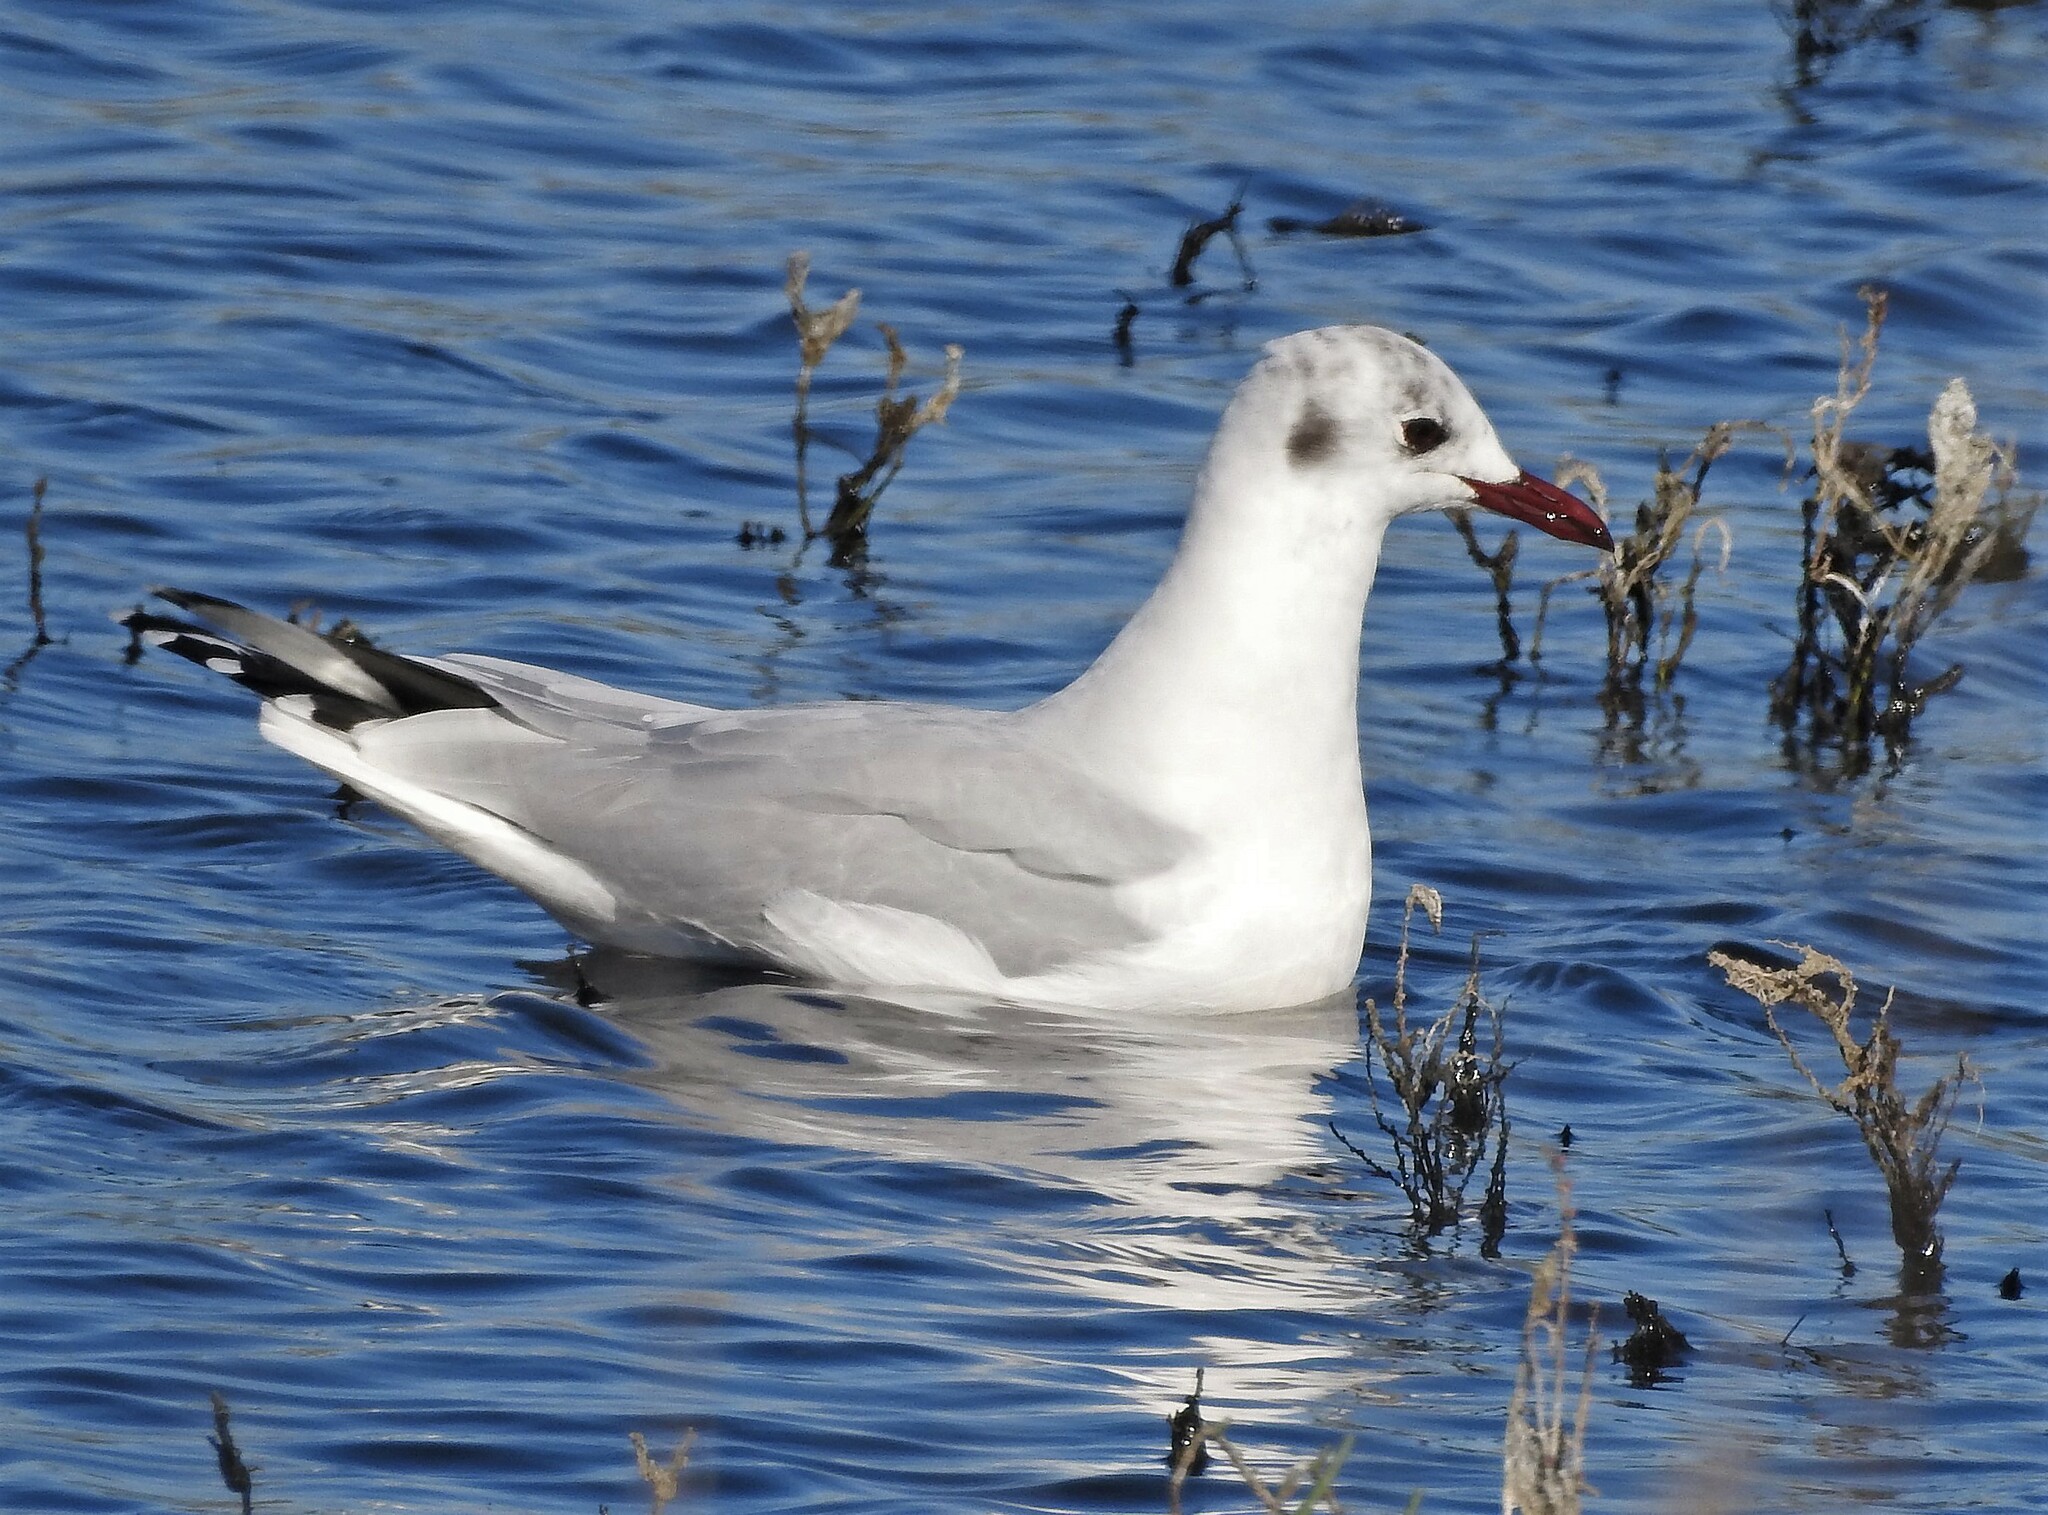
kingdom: Animalia
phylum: Chordata
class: Aves
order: Charadriiformes
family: Laridae
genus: Chroicocephalus
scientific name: Chroicocephalus maculipennis
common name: Brown-hooded gull
